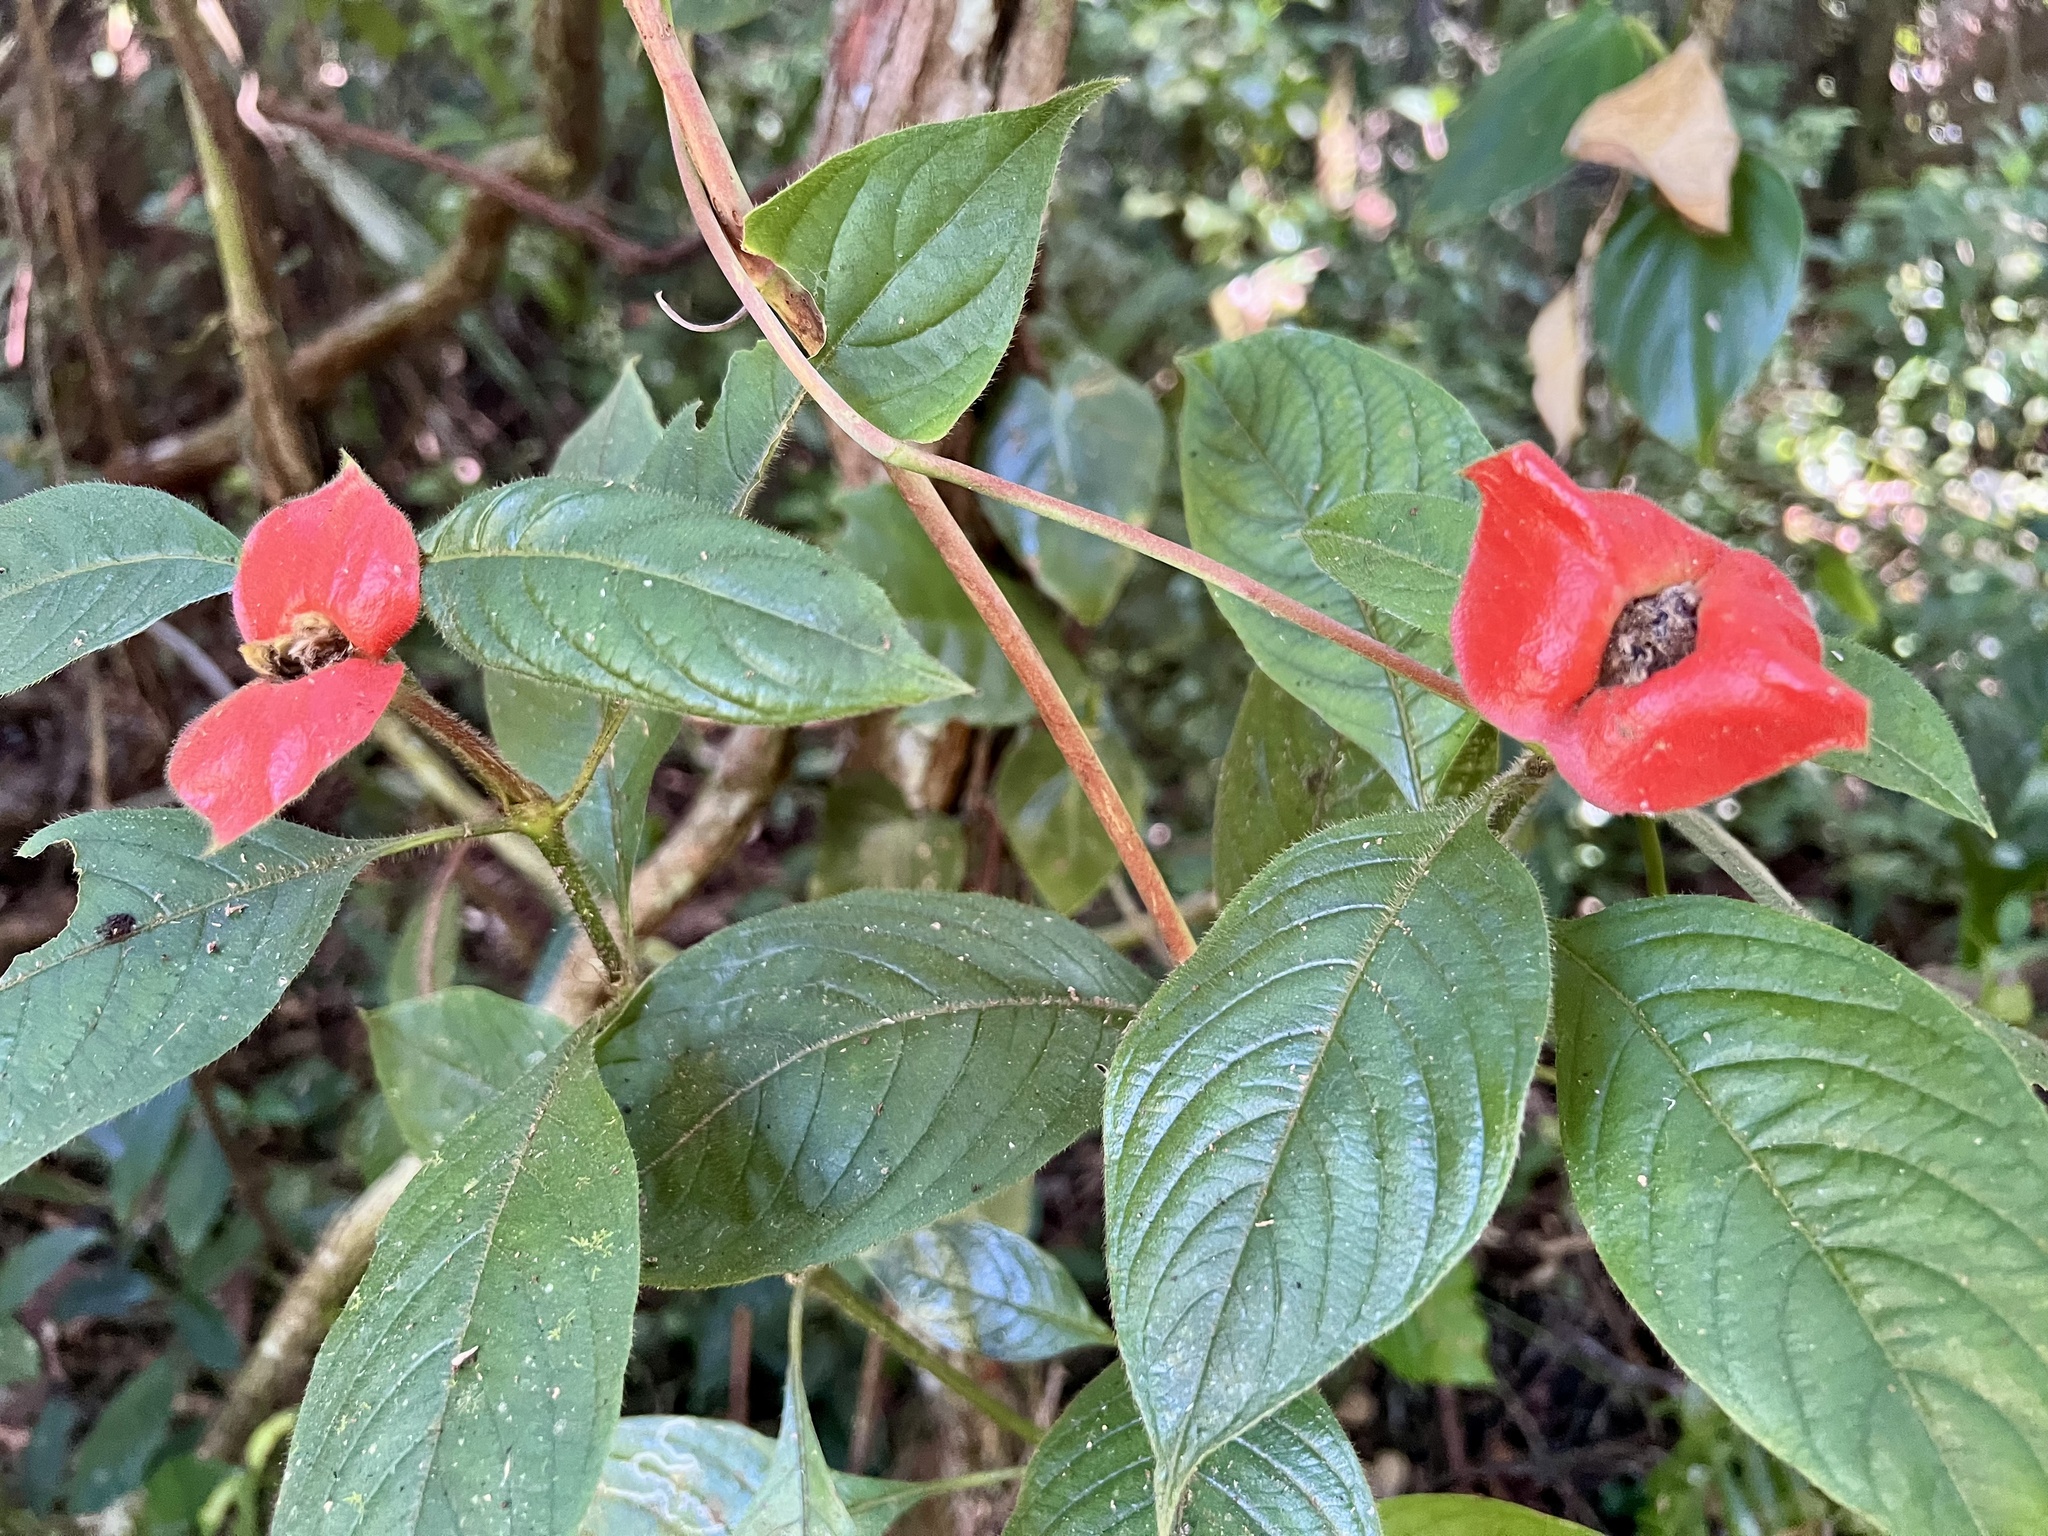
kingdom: Plantae
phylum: Tracheophyta
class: Magnoliopsida
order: Gentianales
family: Rubiaceae
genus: Palicourea
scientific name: Palicourea tomentosa
